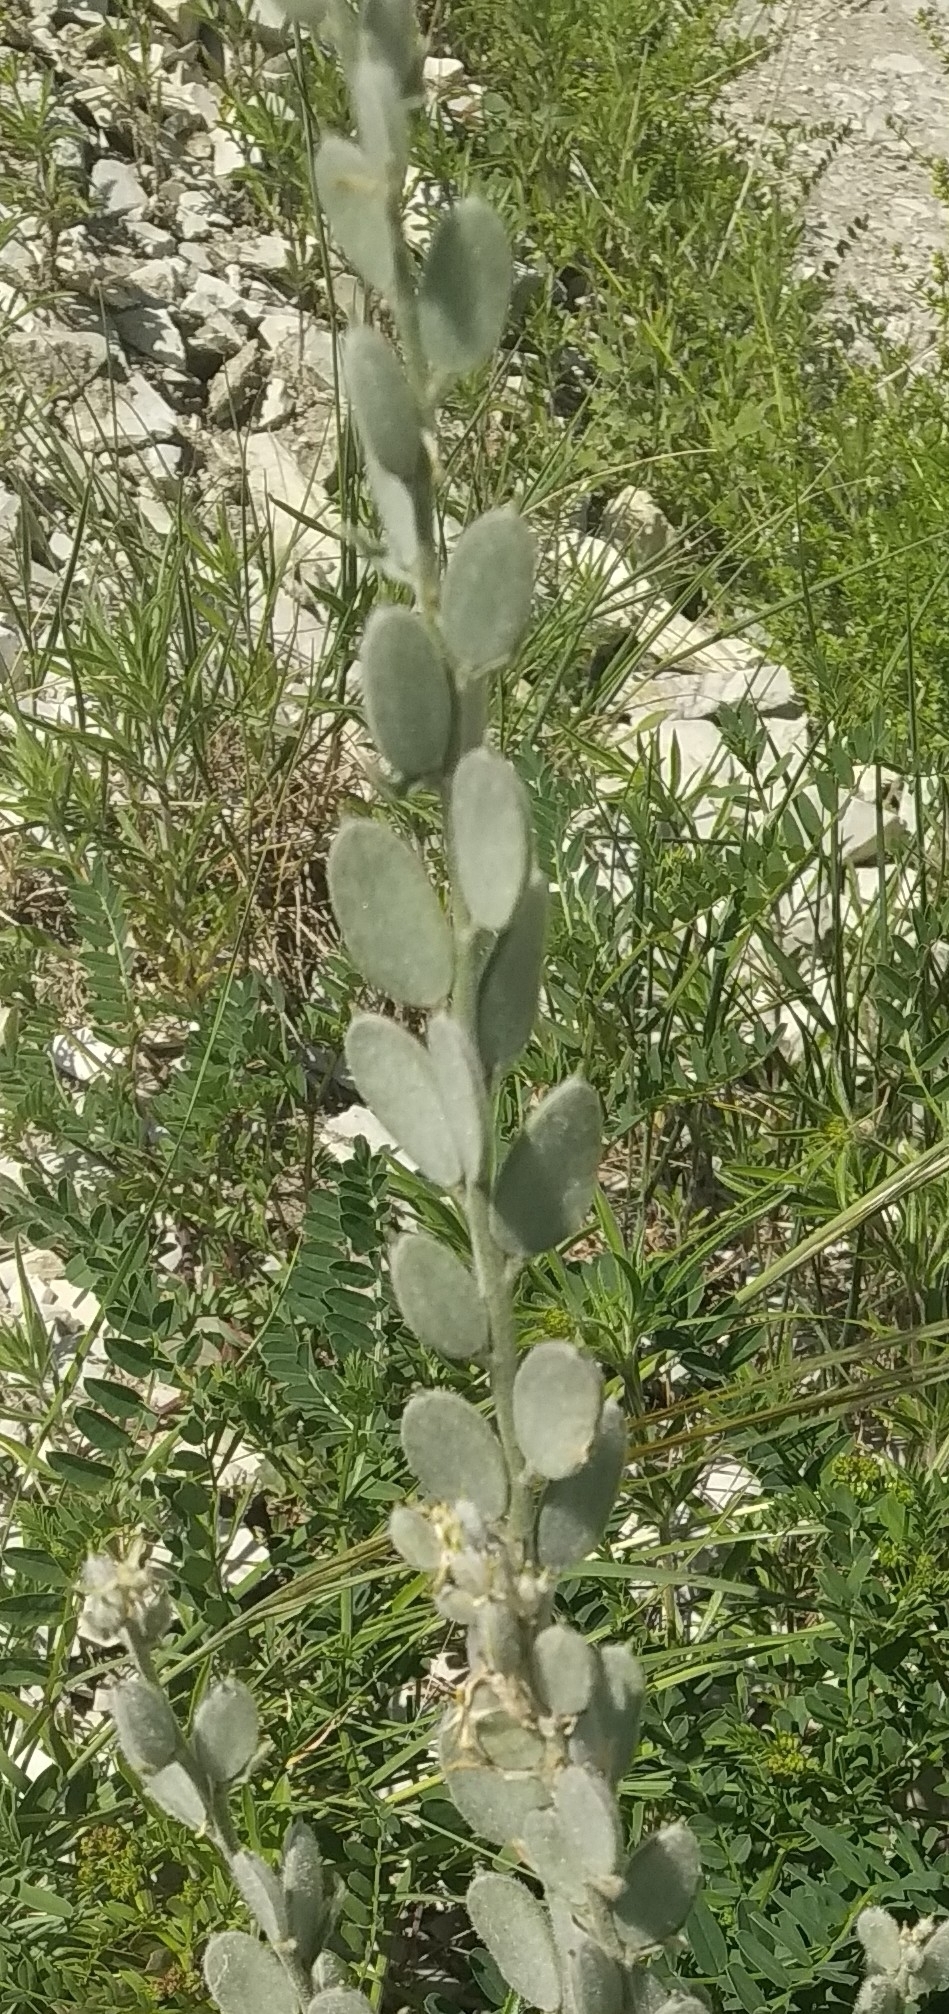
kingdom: Plantae
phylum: Tracheophyta
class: Magnoliopsida
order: Brassicales
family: Brassicaceae
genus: Fibigia
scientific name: Fibigia clypeata
